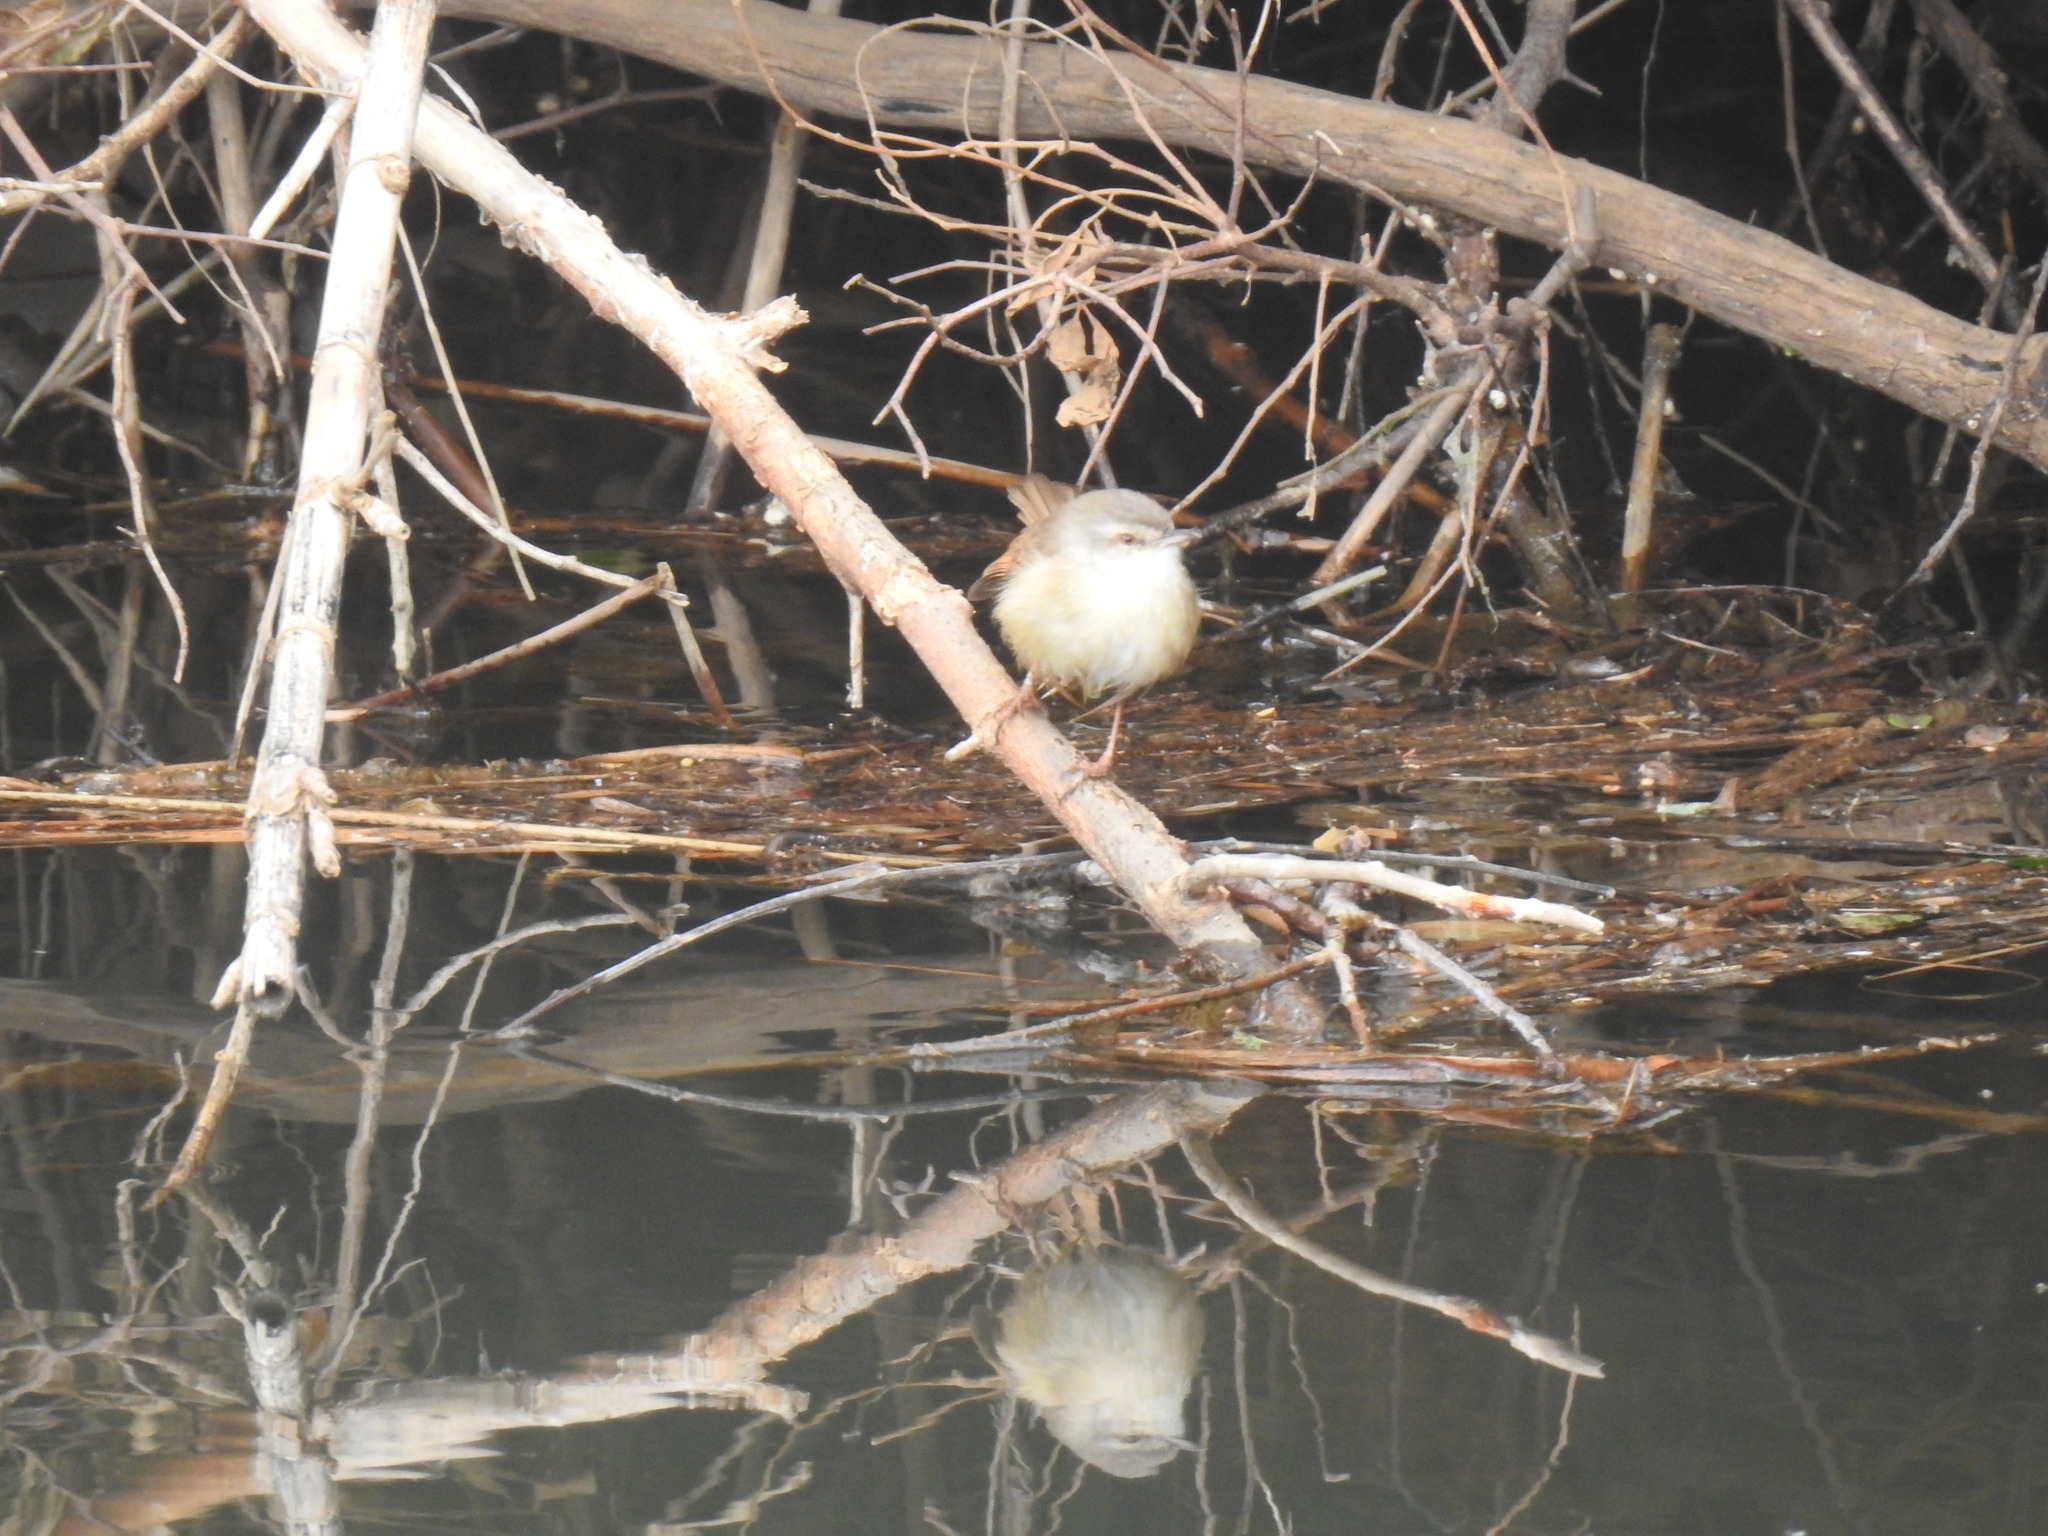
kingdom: Animalia
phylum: Chordata
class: Aves
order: Passeriformes
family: Cisticolidae
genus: Prinia
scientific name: Prinia subflava
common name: Tawny-flanked prinia
